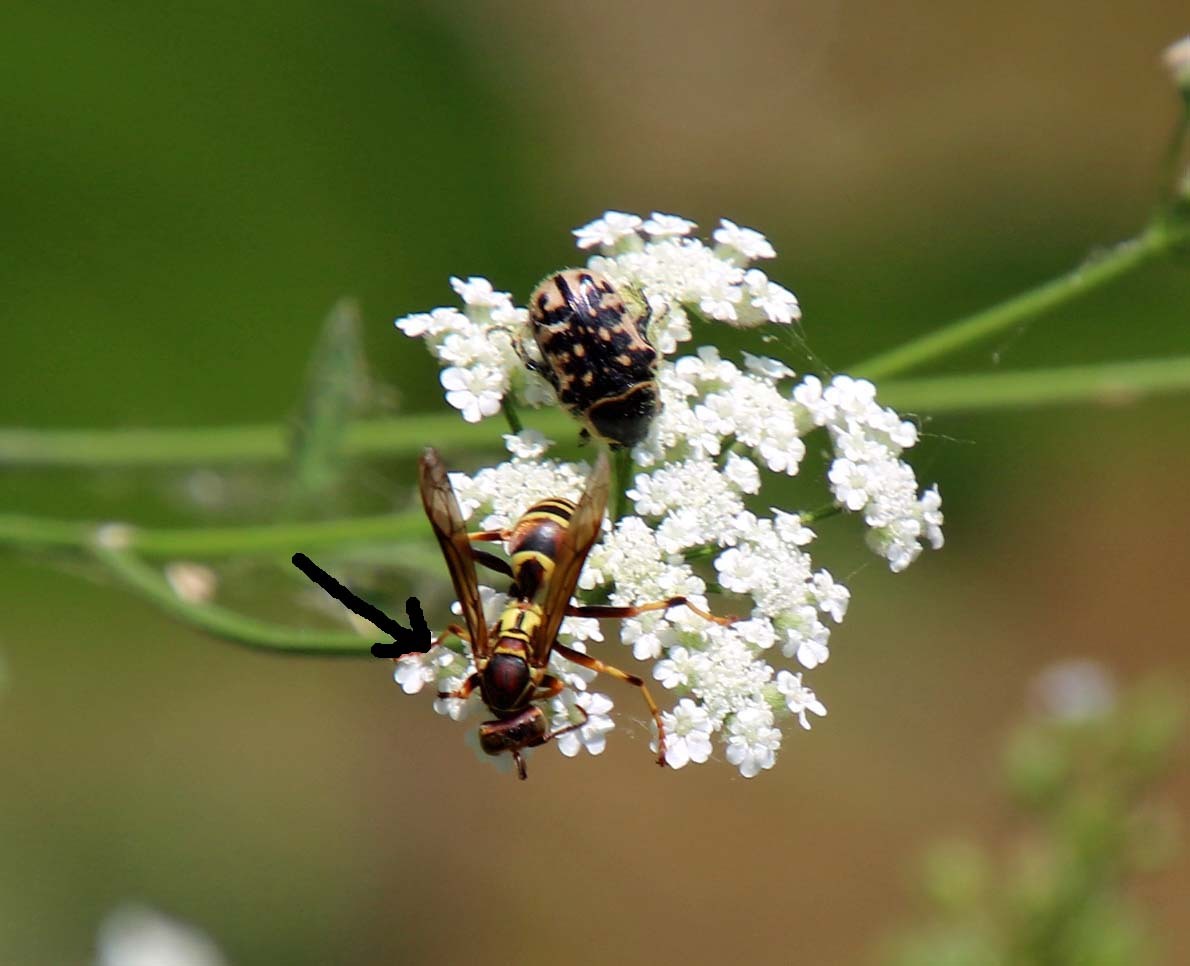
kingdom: Animalia
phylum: Arthropoda
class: Insecta
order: Hymenoptera
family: Eumenidae
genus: Polistes
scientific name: Polistes dorsalis
